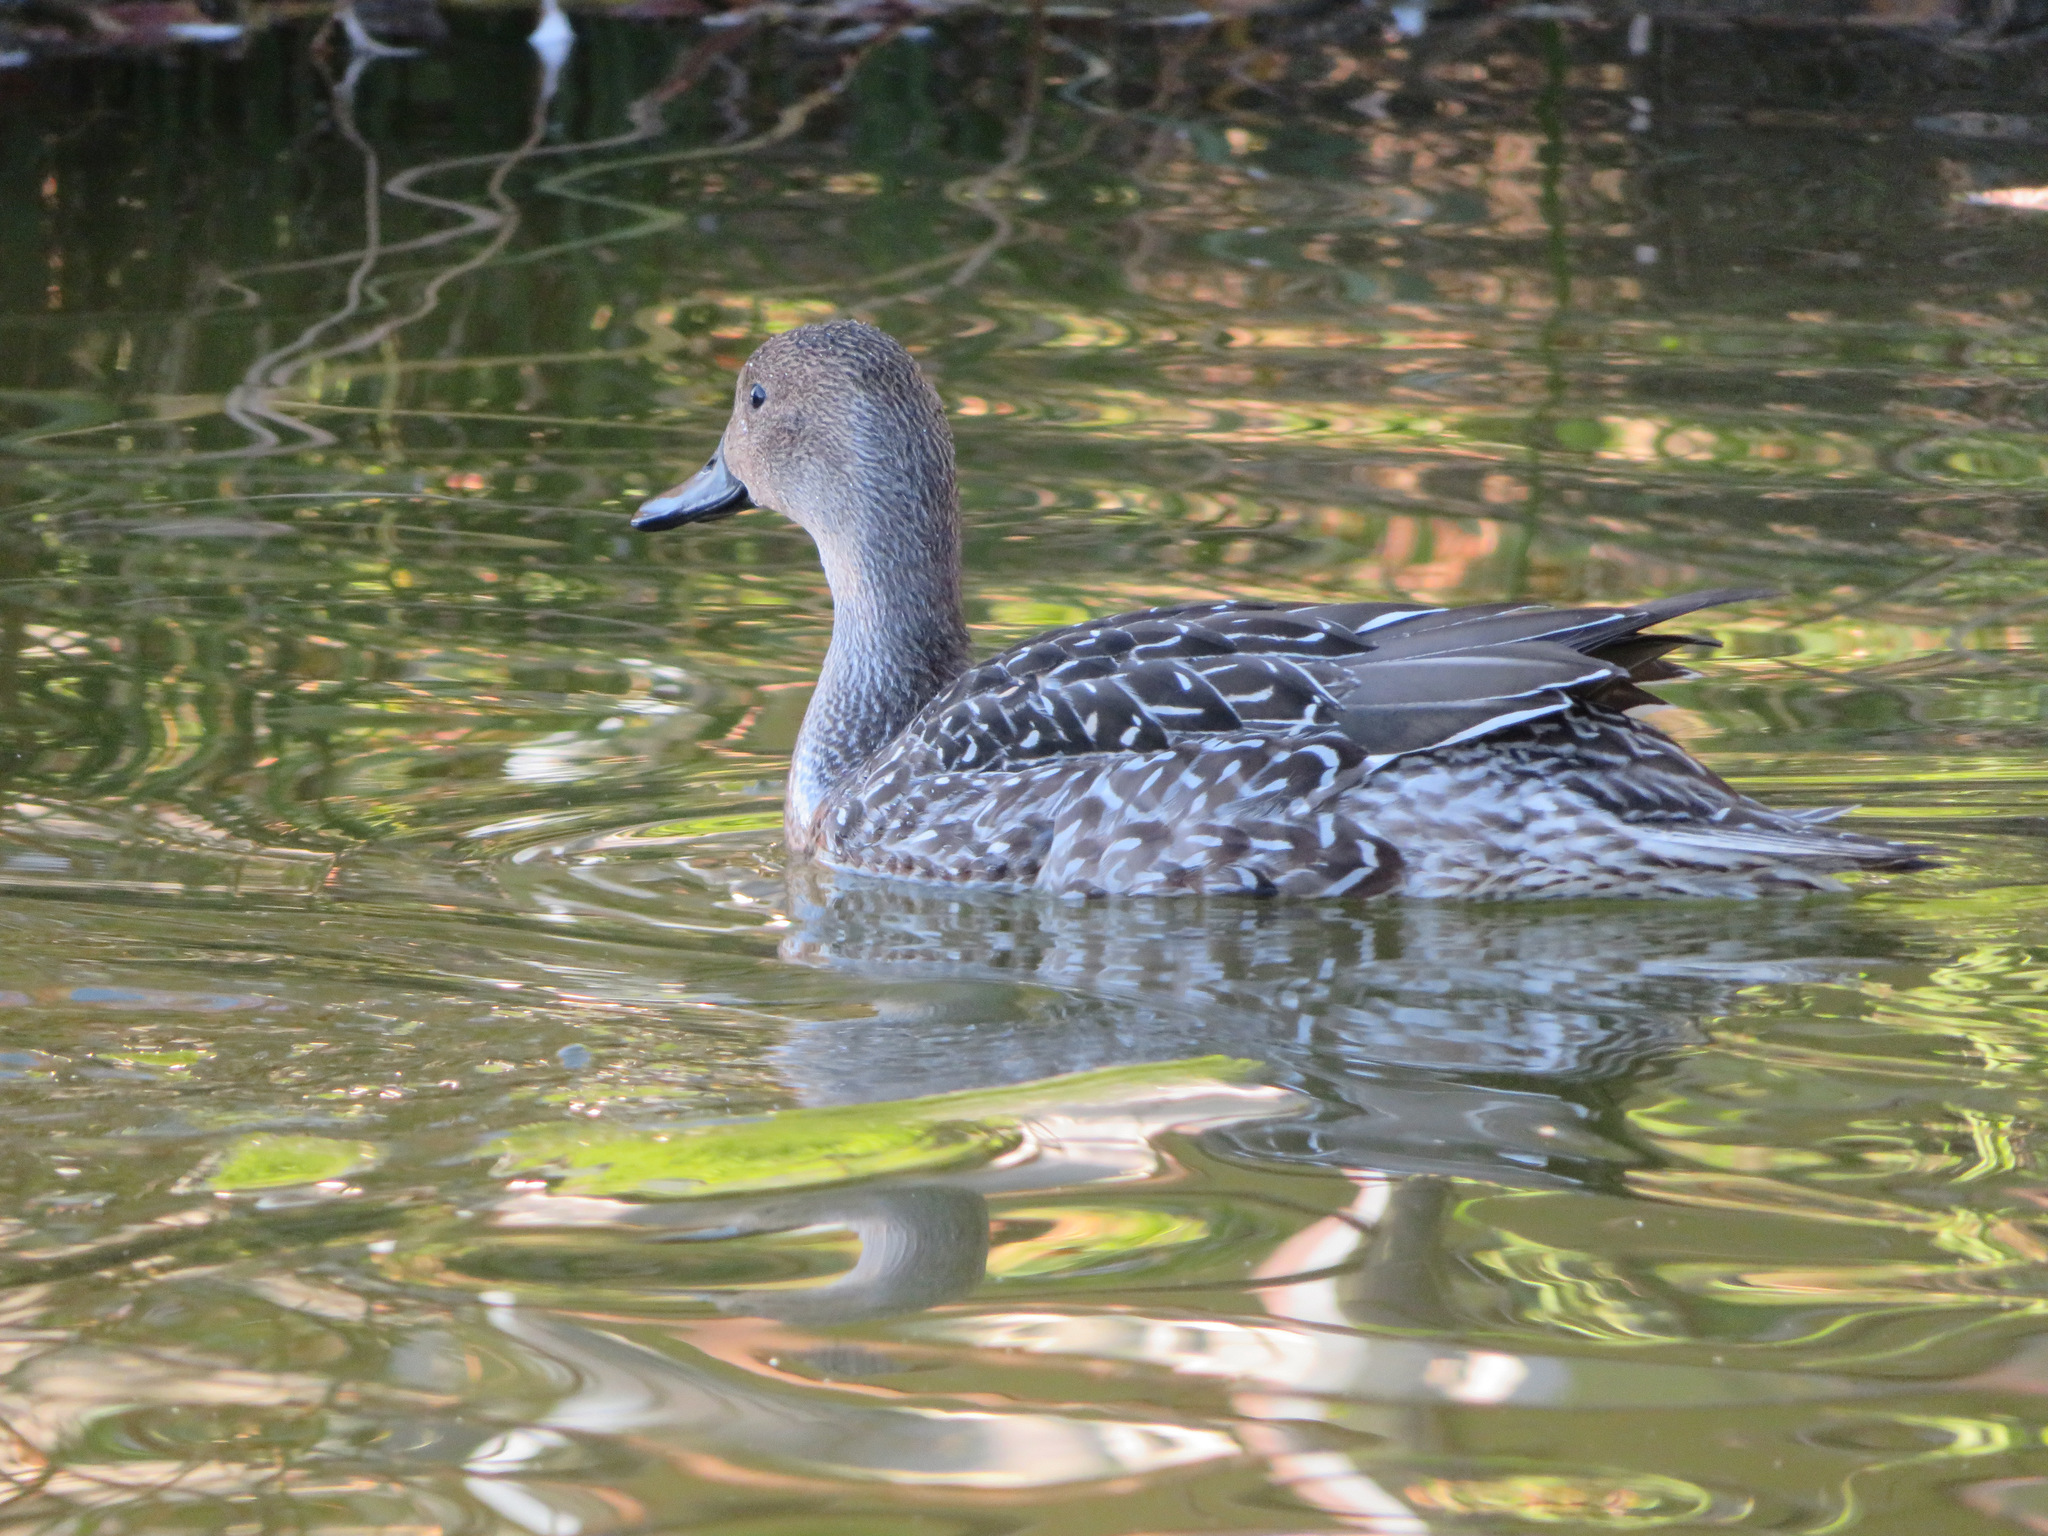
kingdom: Animalia
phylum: Chordata
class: Aves
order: Anseriformes
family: Anatidae
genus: Anas
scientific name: Anas acuta
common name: Northern pintail
